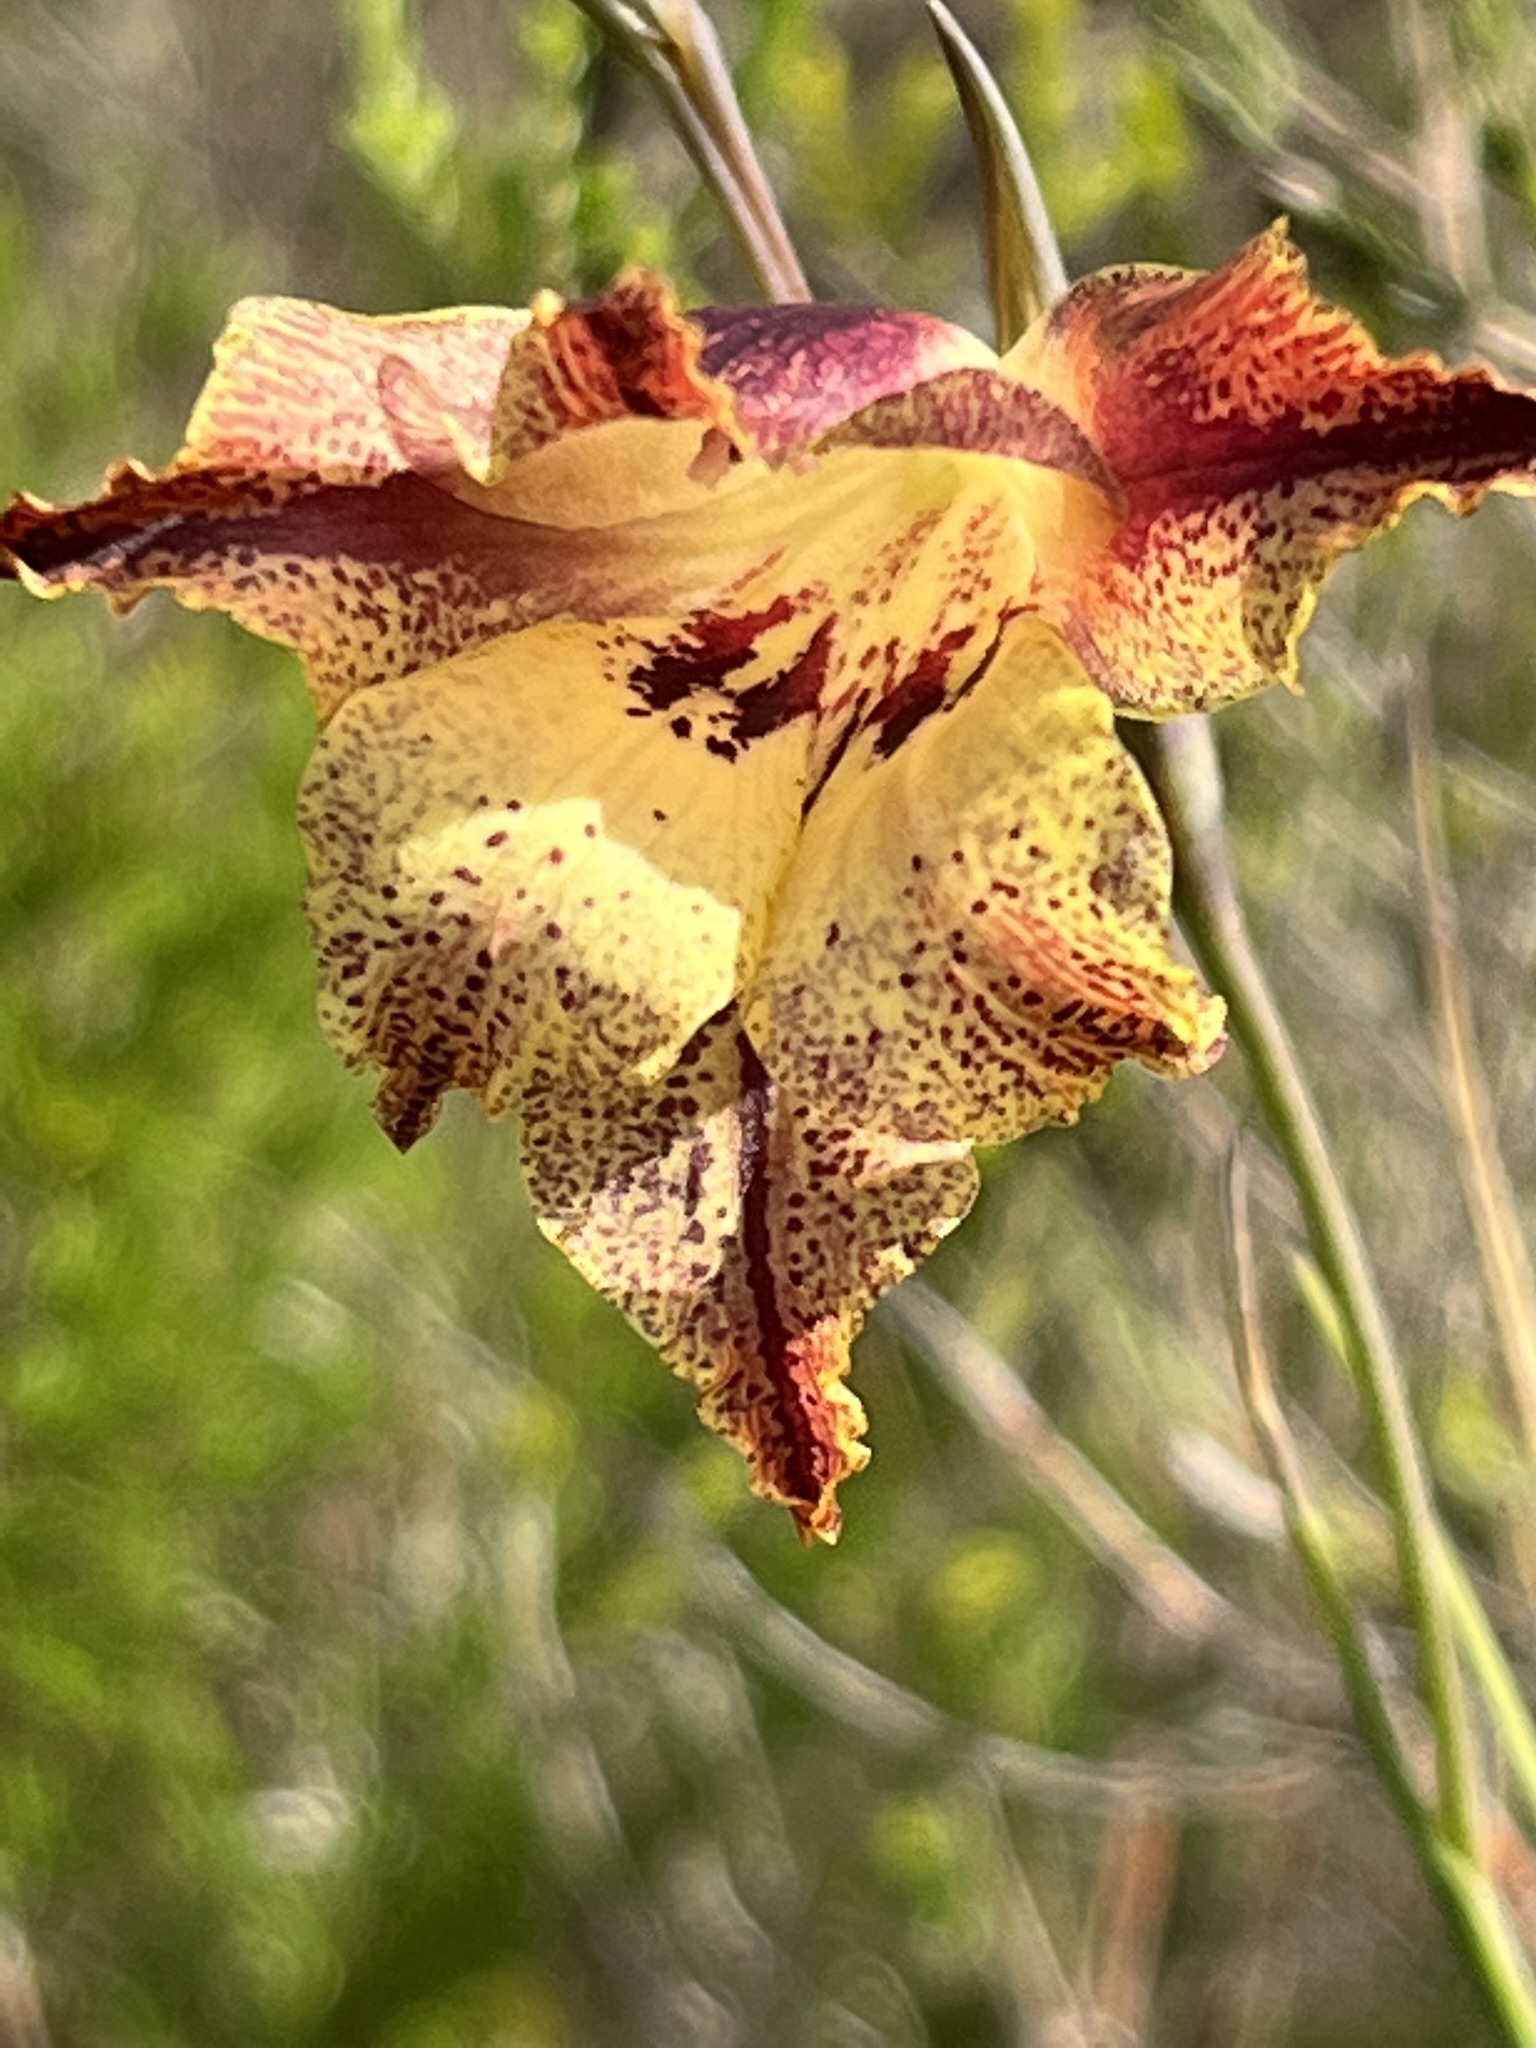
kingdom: Plantae
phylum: Tracheophyta
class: Liliopsida
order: Asparagales
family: Iridaceae
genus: Gladiolus
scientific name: Gladiolus maculatus
